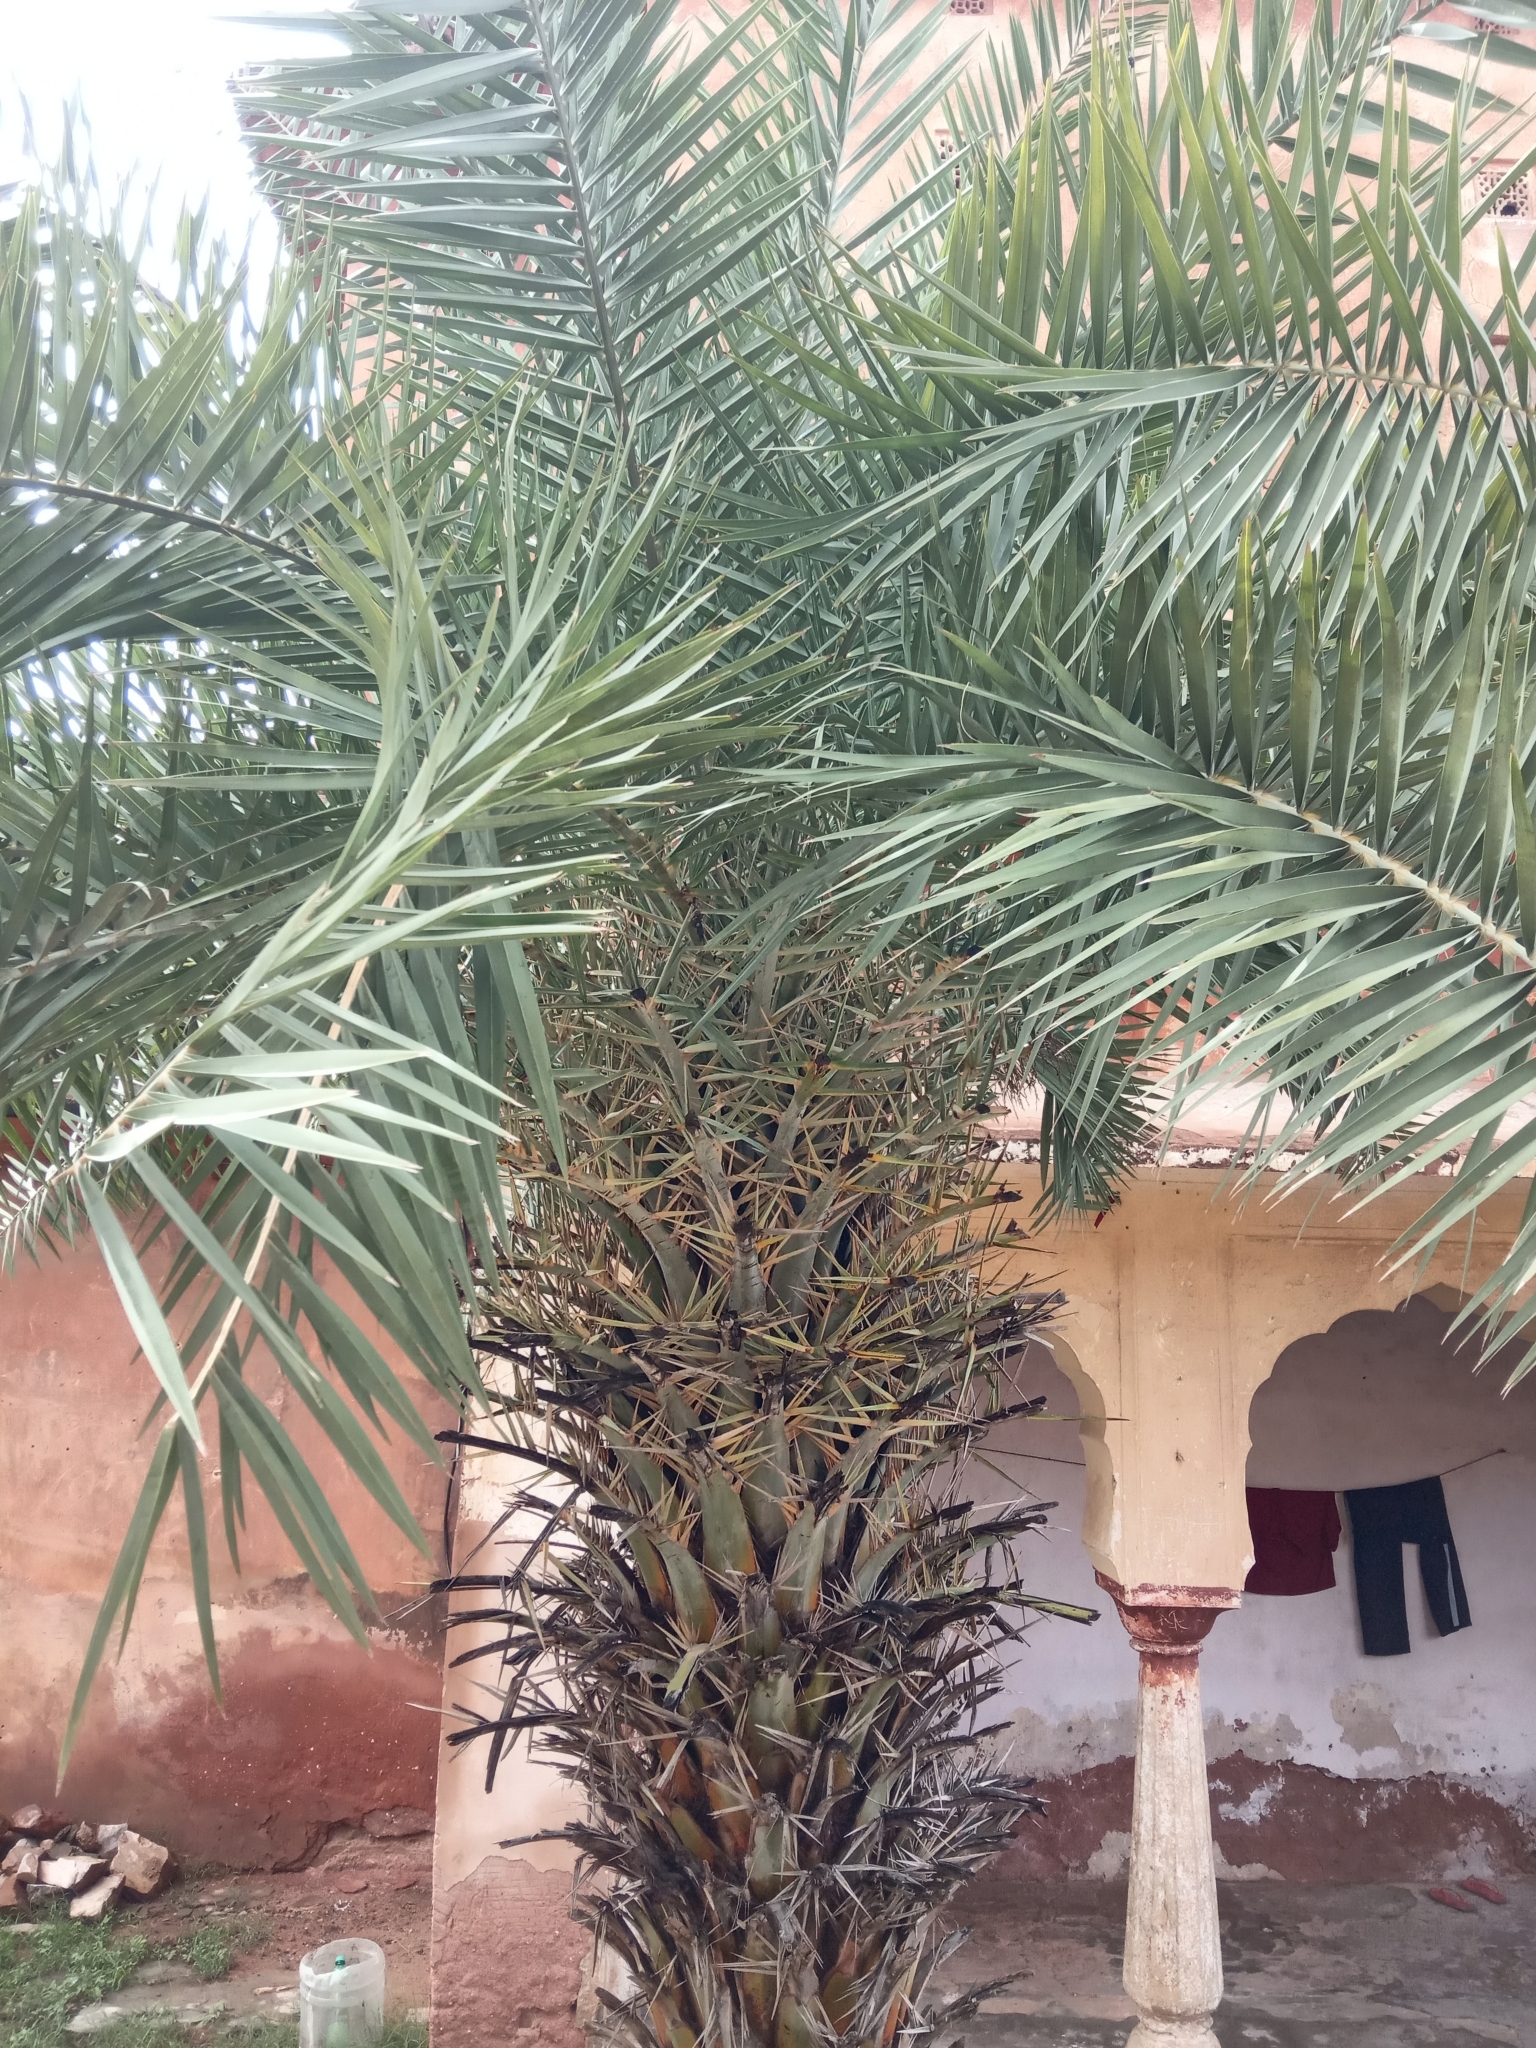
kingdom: Plantae
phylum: Tracheophyta
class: Liliopsida
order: Arecales
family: Arecaceae
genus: Phoenix
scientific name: Phoenix sylvestris
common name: Wild date palm
